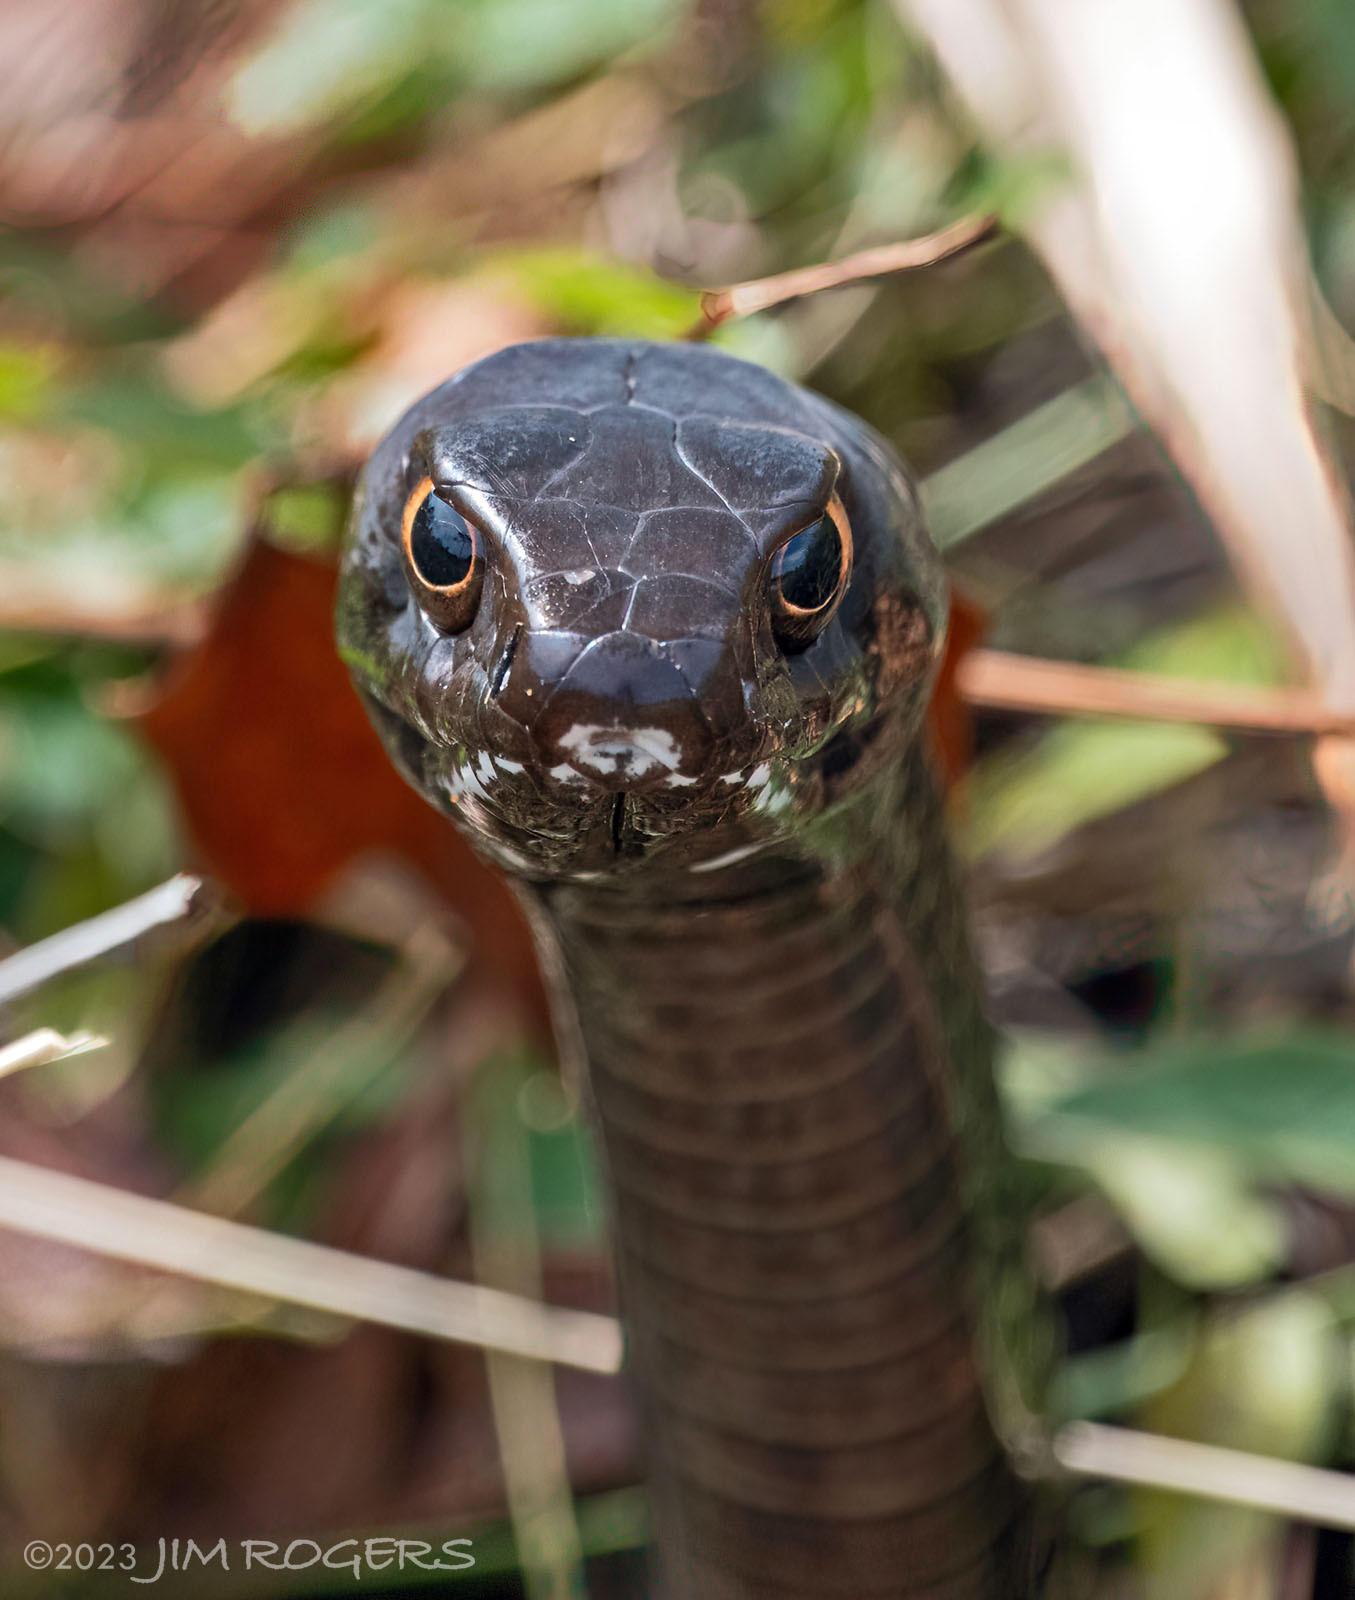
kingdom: Animalia
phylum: Chordata
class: Squamata
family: Colubridae
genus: Masticophis
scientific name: Masticophis flagellum
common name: Coachwhip
